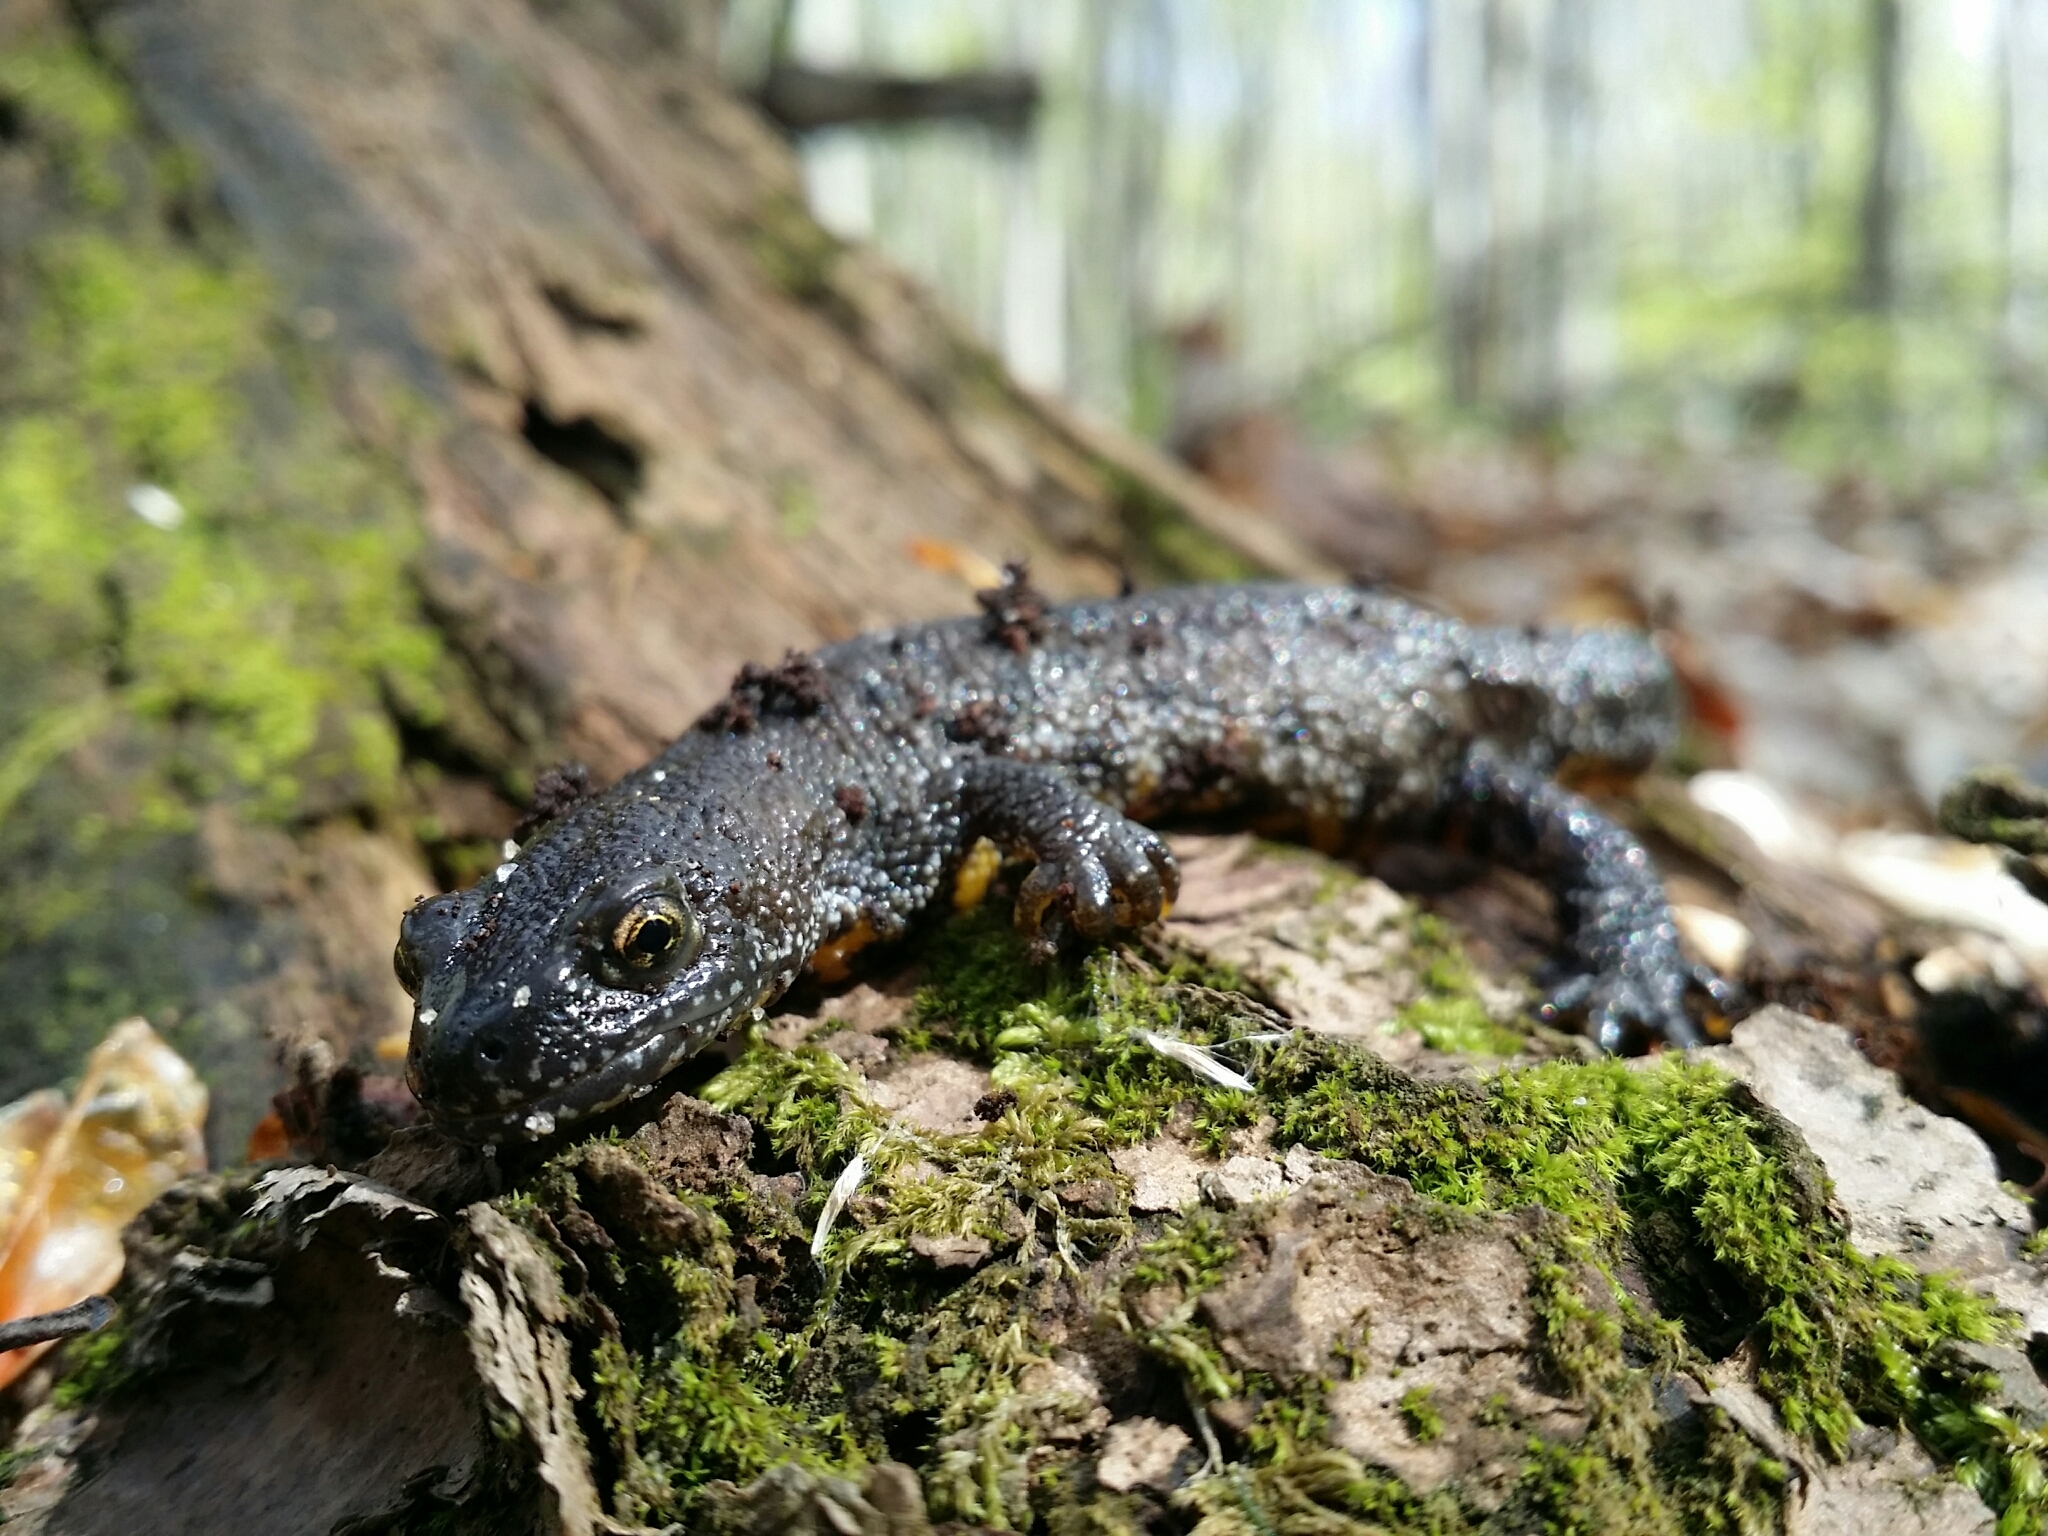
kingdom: Animalia
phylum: Chordata
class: Amphibia
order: Caudata
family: Salamandridae
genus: Triturus
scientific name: Triturus cristatus
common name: Crested newt
